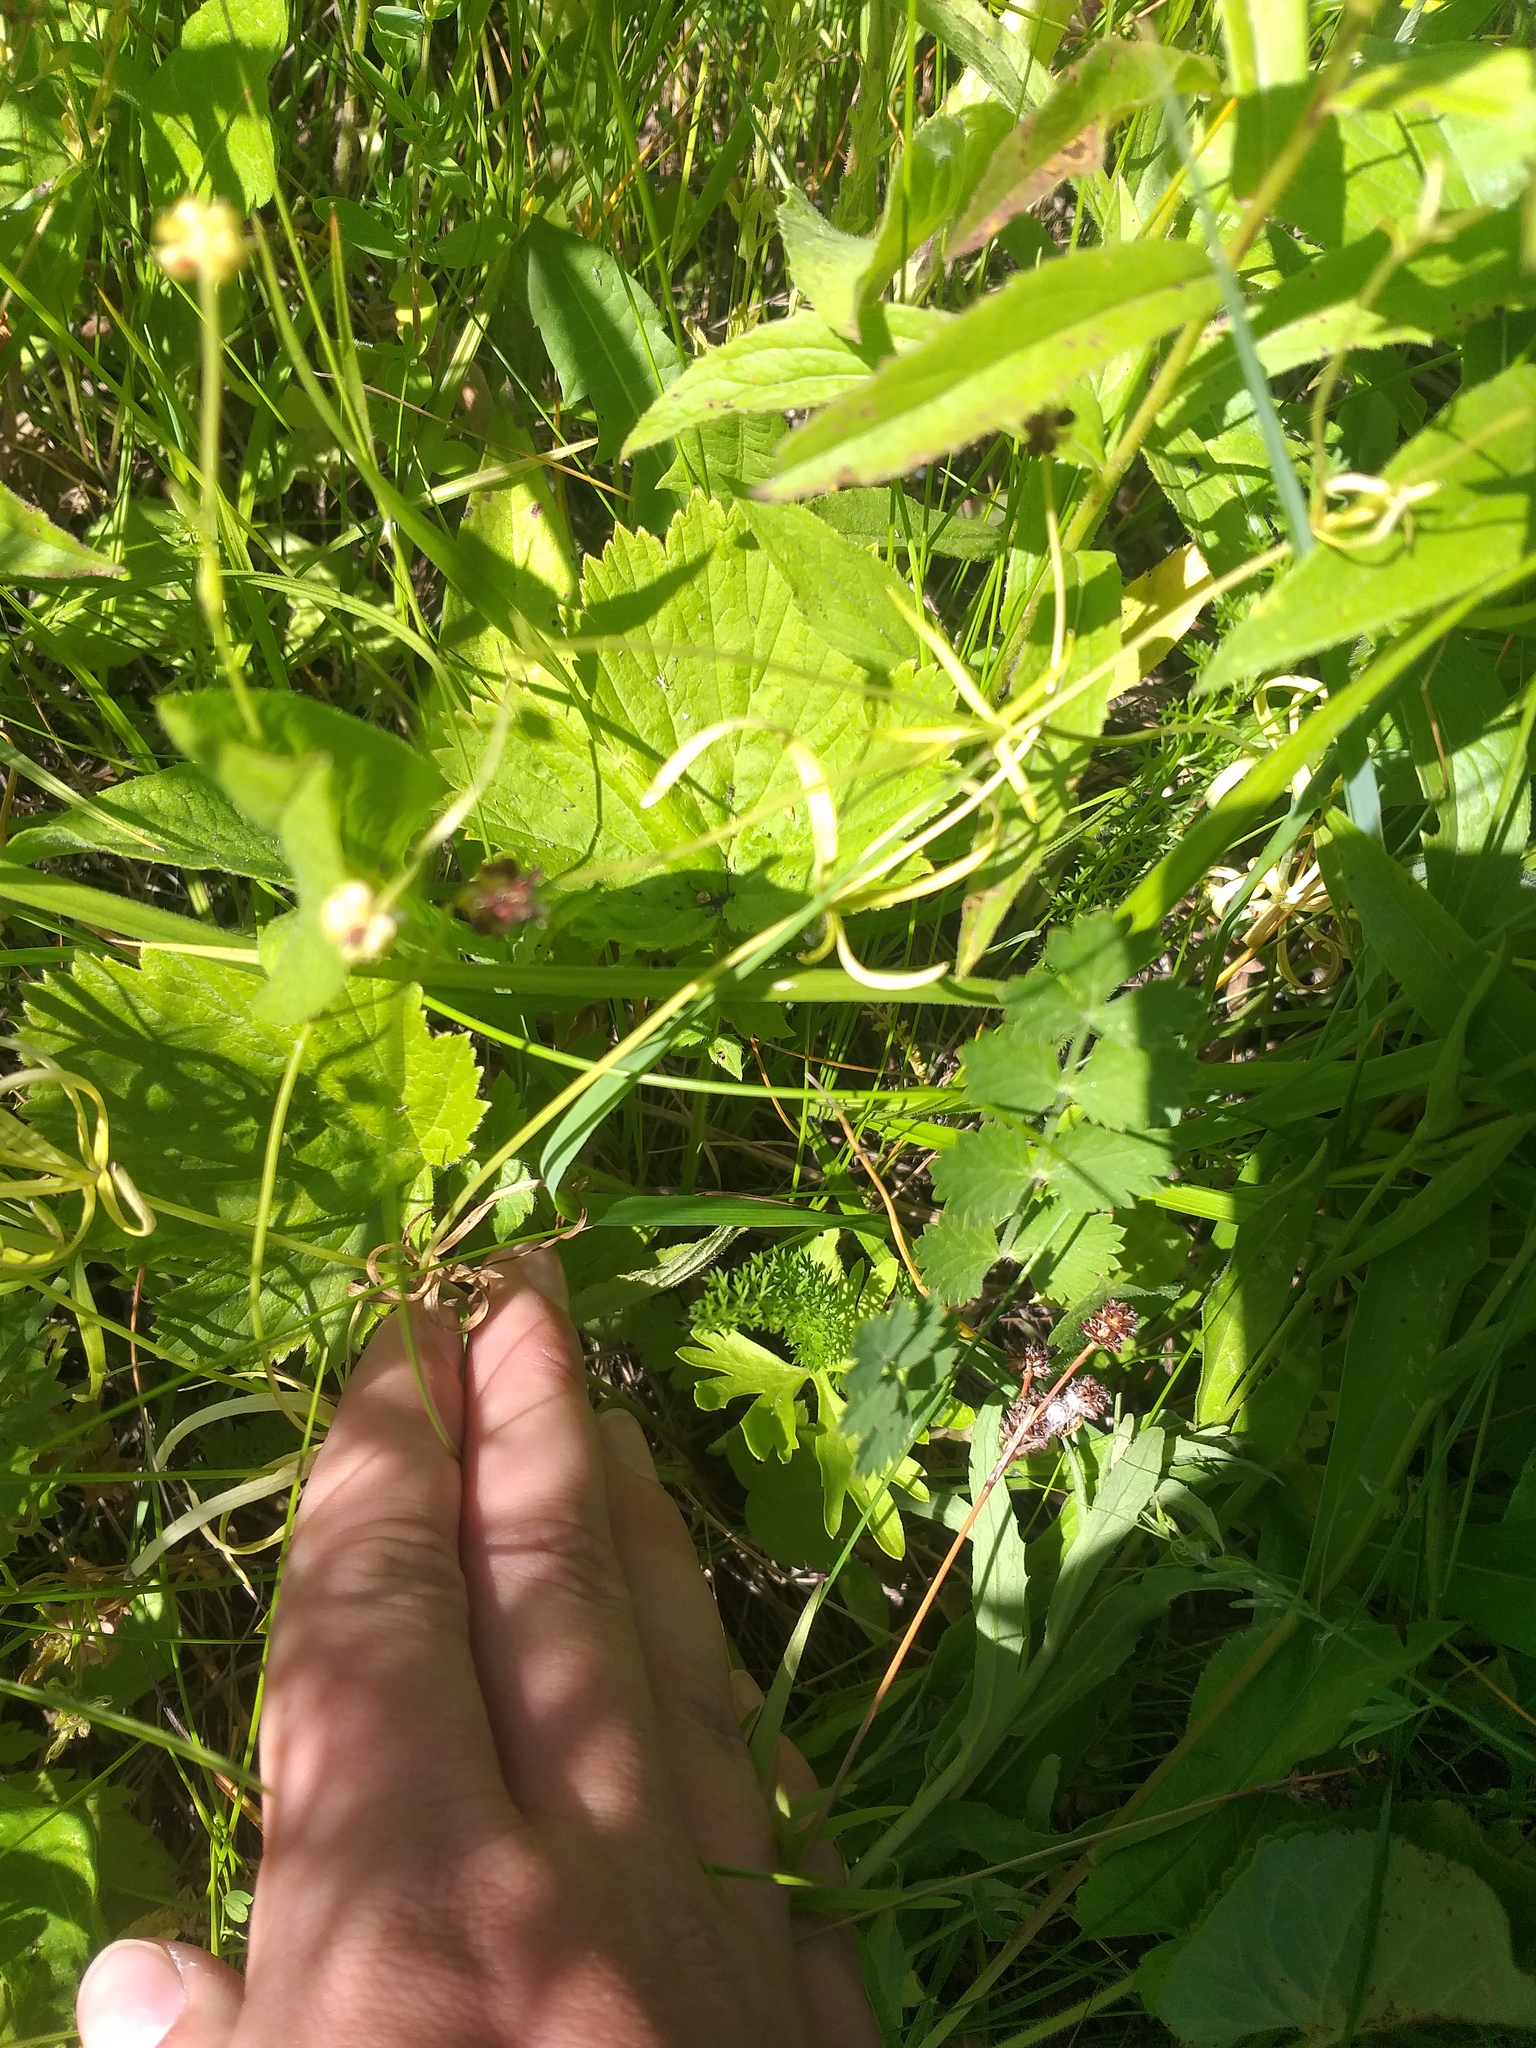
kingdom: Plantae
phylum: Tracheophyta
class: Magnoliopsida
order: Ranunculales
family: Ranunculaceae
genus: Ranunculus
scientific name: Ranunculus auricomus
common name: Goldilocks buttercup
